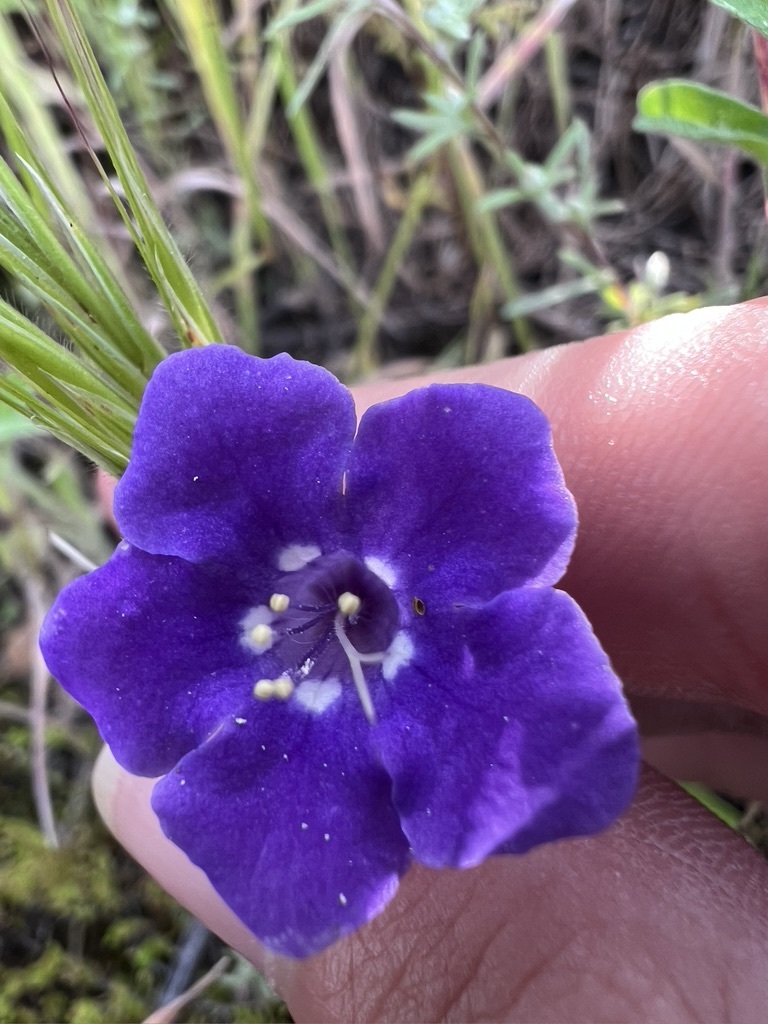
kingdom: Plantae
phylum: Tracheophyta
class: Magnoliopsida
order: Boraginales
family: Hydrophyllaceae
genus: Phacelia
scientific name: Phacelia parryi
